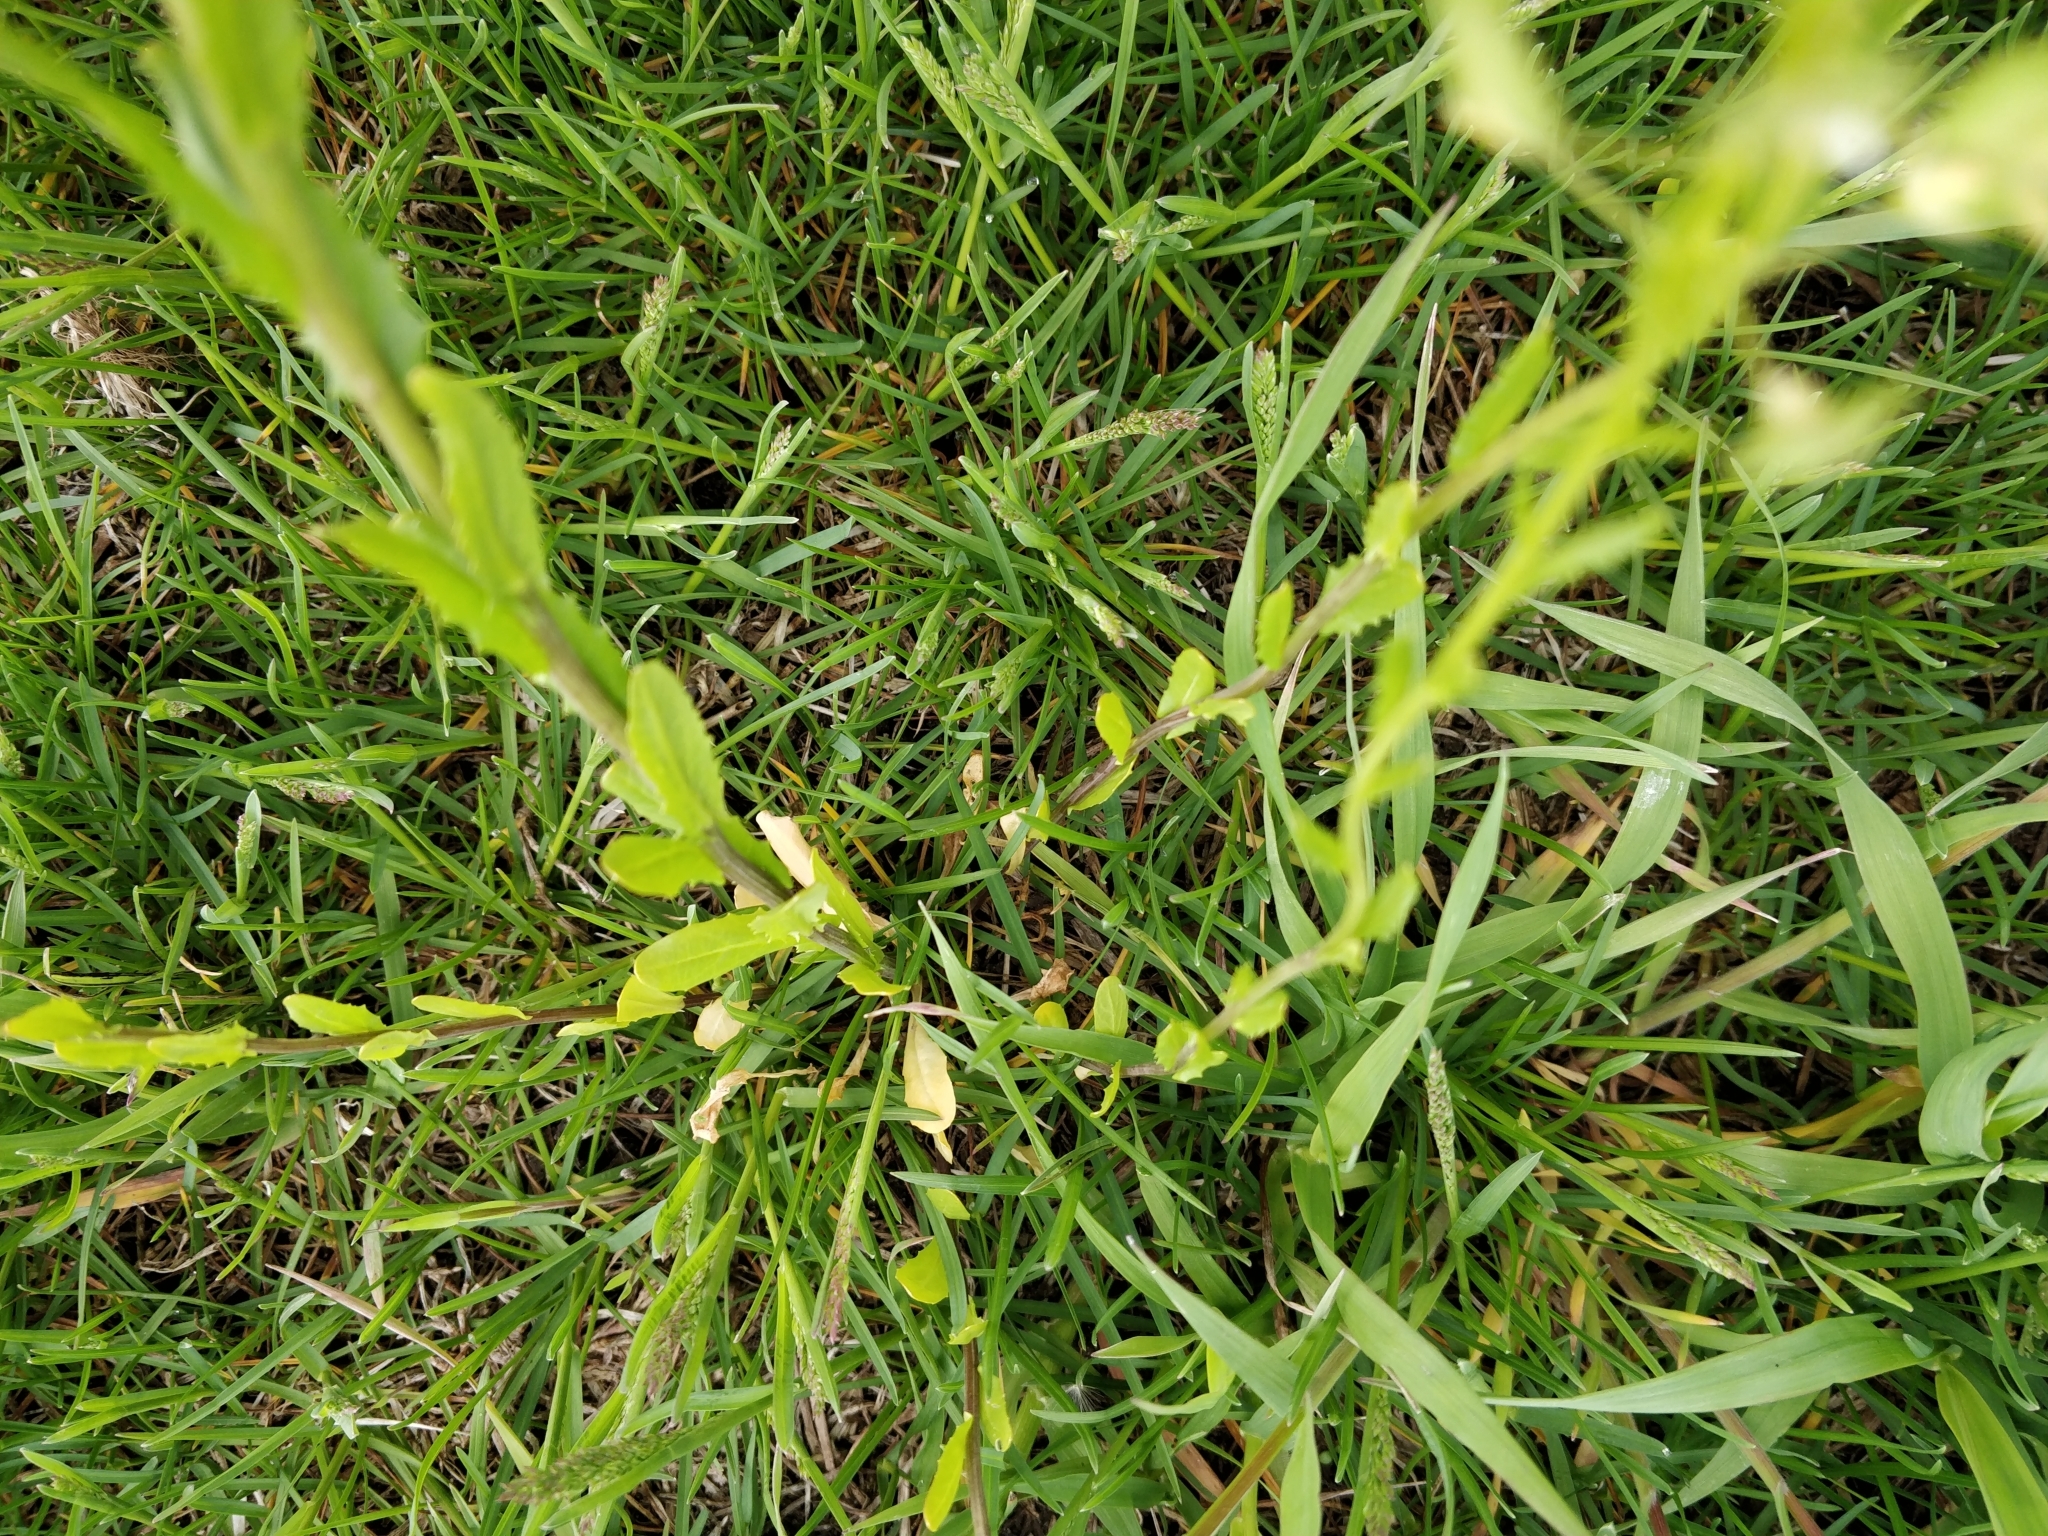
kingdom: Plantae
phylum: Tracheophyta
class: Magnoliopsida
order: Brassicales
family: Brassicaceae
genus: Thlaspi
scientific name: Thlaspi arvense
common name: Field pennycress
